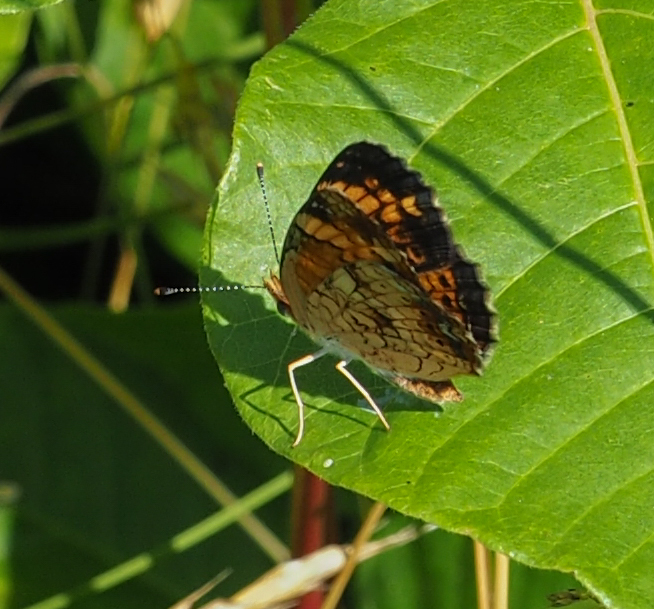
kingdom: Animalia
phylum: Arthropoda
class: Insecta
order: Lepidoptera
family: Nymphalidae
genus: Phyciodes
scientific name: Phyciodes tharos
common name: Pearl crescent
